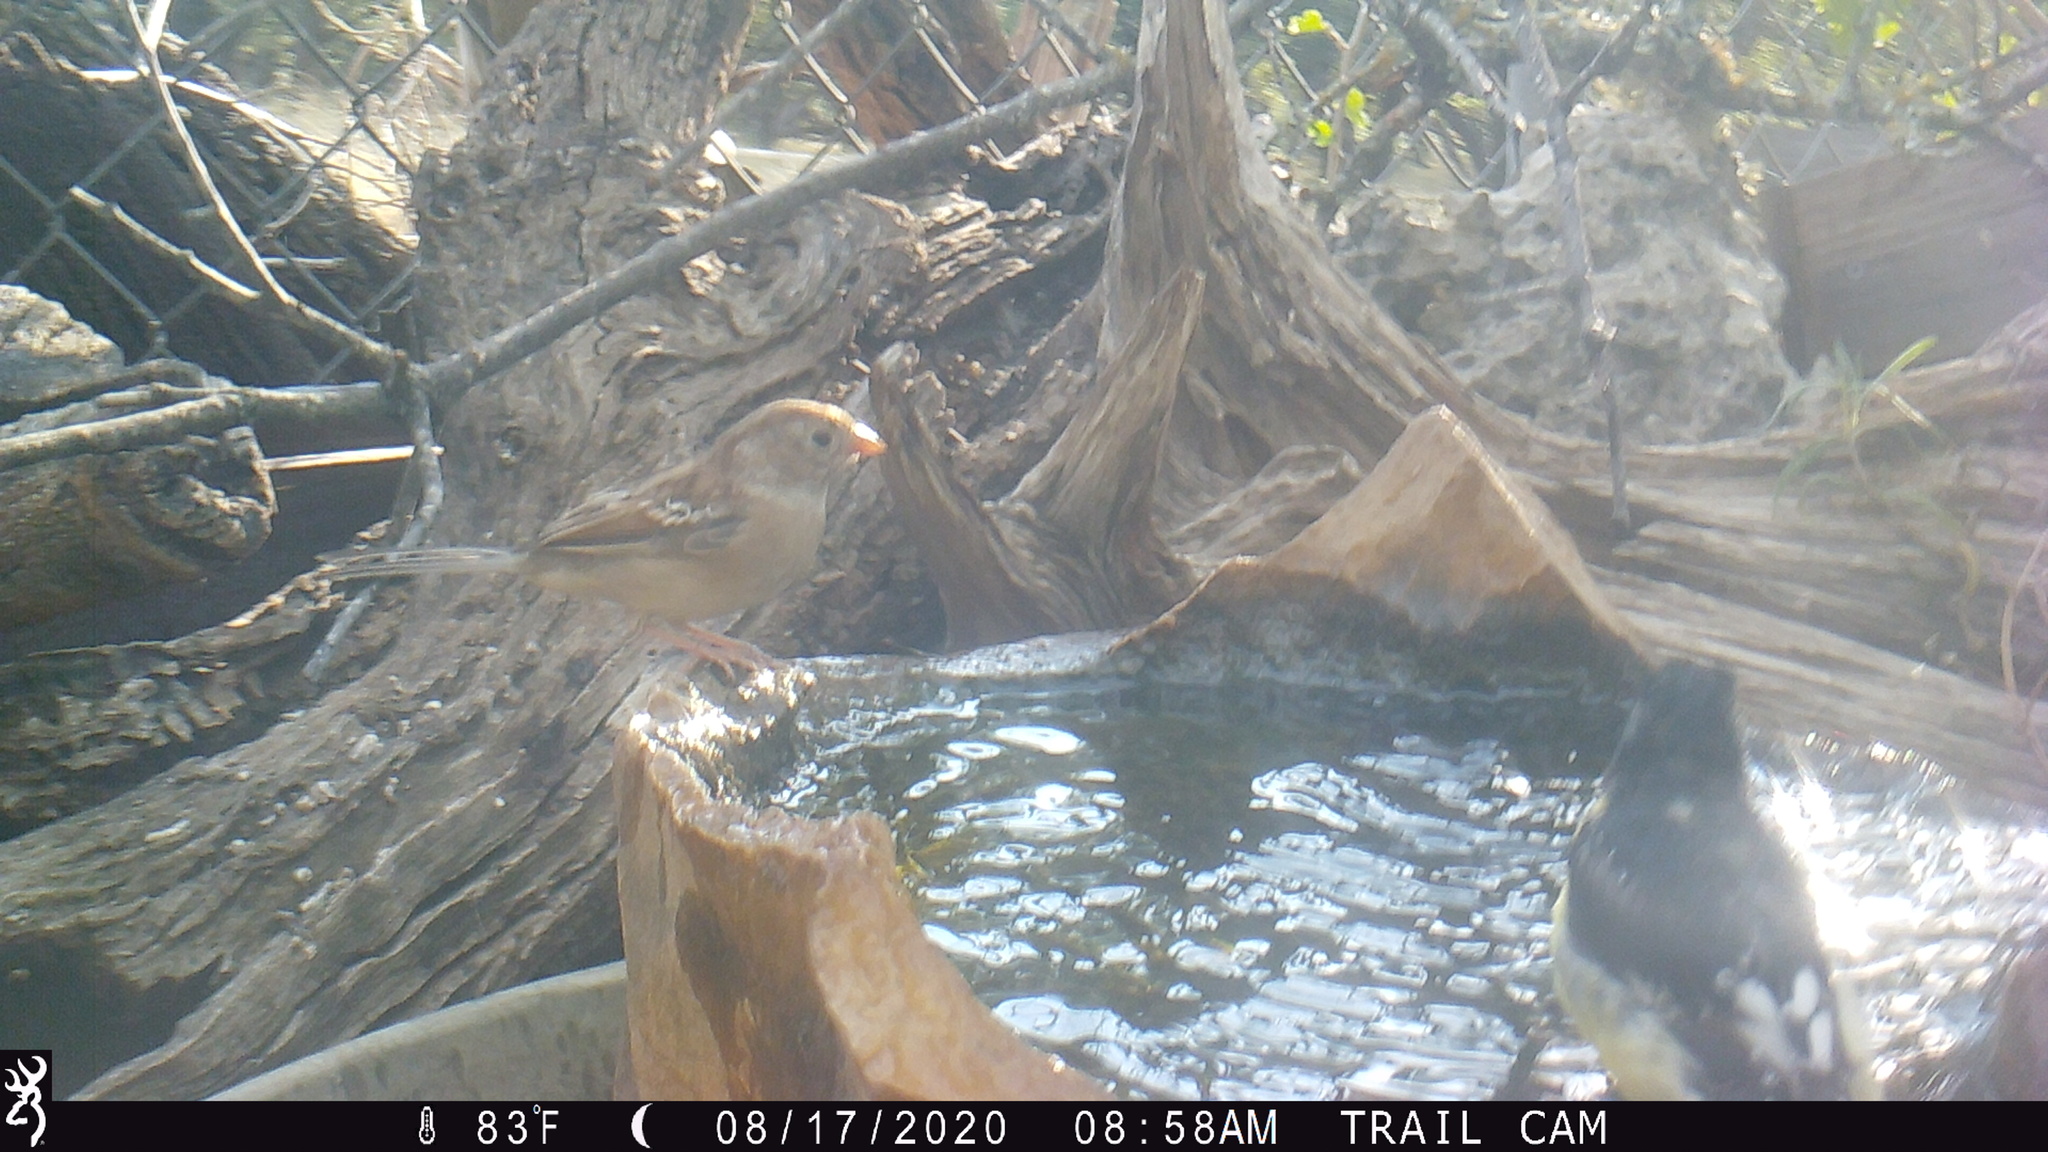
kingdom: Animalia
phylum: Chordata
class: Aves
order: Passeriformes
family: Passerellidae
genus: Spizella
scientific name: Spizella pusilla
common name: Field sparrow
